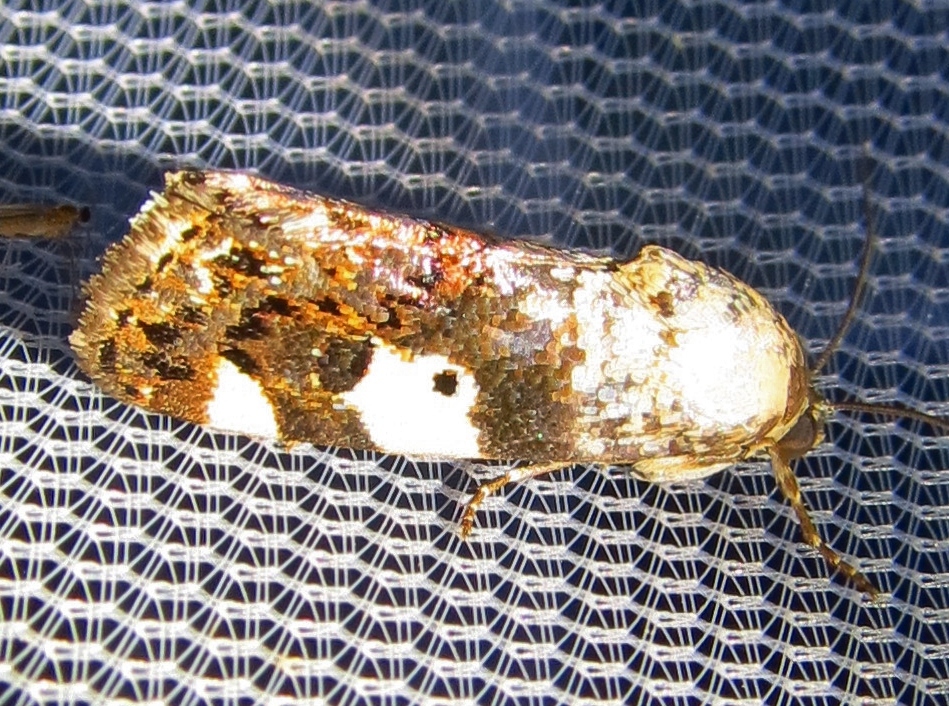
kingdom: Animalia
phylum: Arthropoda
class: Insecta
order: Lepidoptera
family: Noctuidae
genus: Acontia
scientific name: Acontia aprica
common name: Nun
